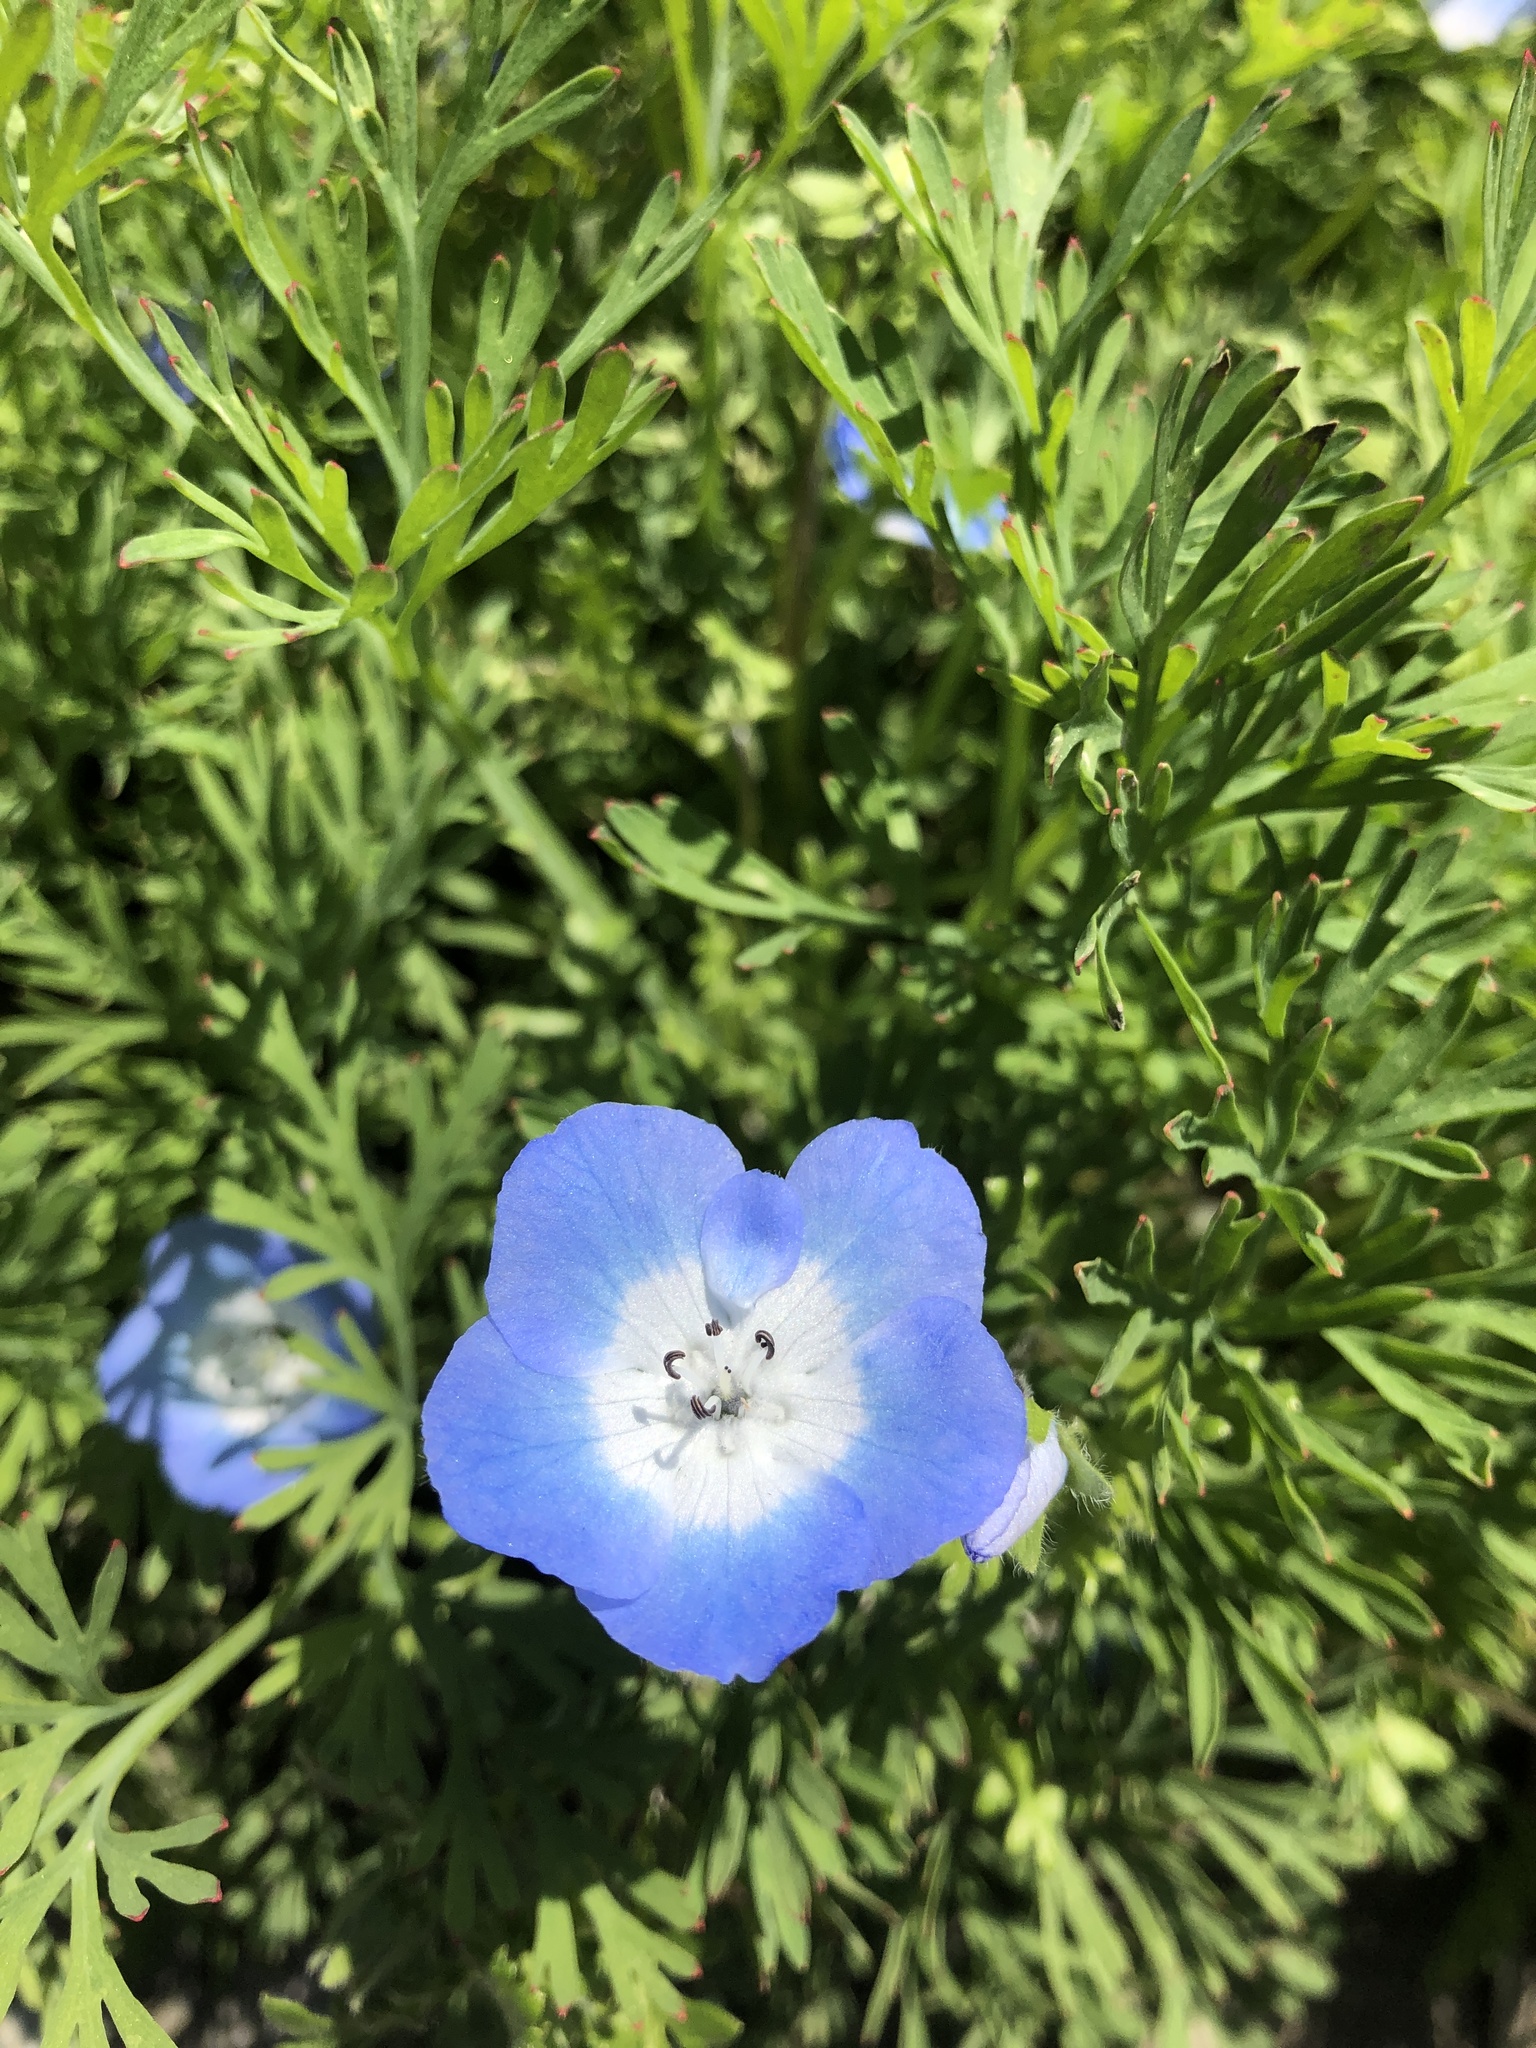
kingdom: Plantae
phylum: Tracheophyta
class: Magnoliopsida
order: Boraginales
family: Hydrophyllaceae
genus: Nemophila
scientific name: Nemophila menziesii
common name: Baby's-blue-eyes
